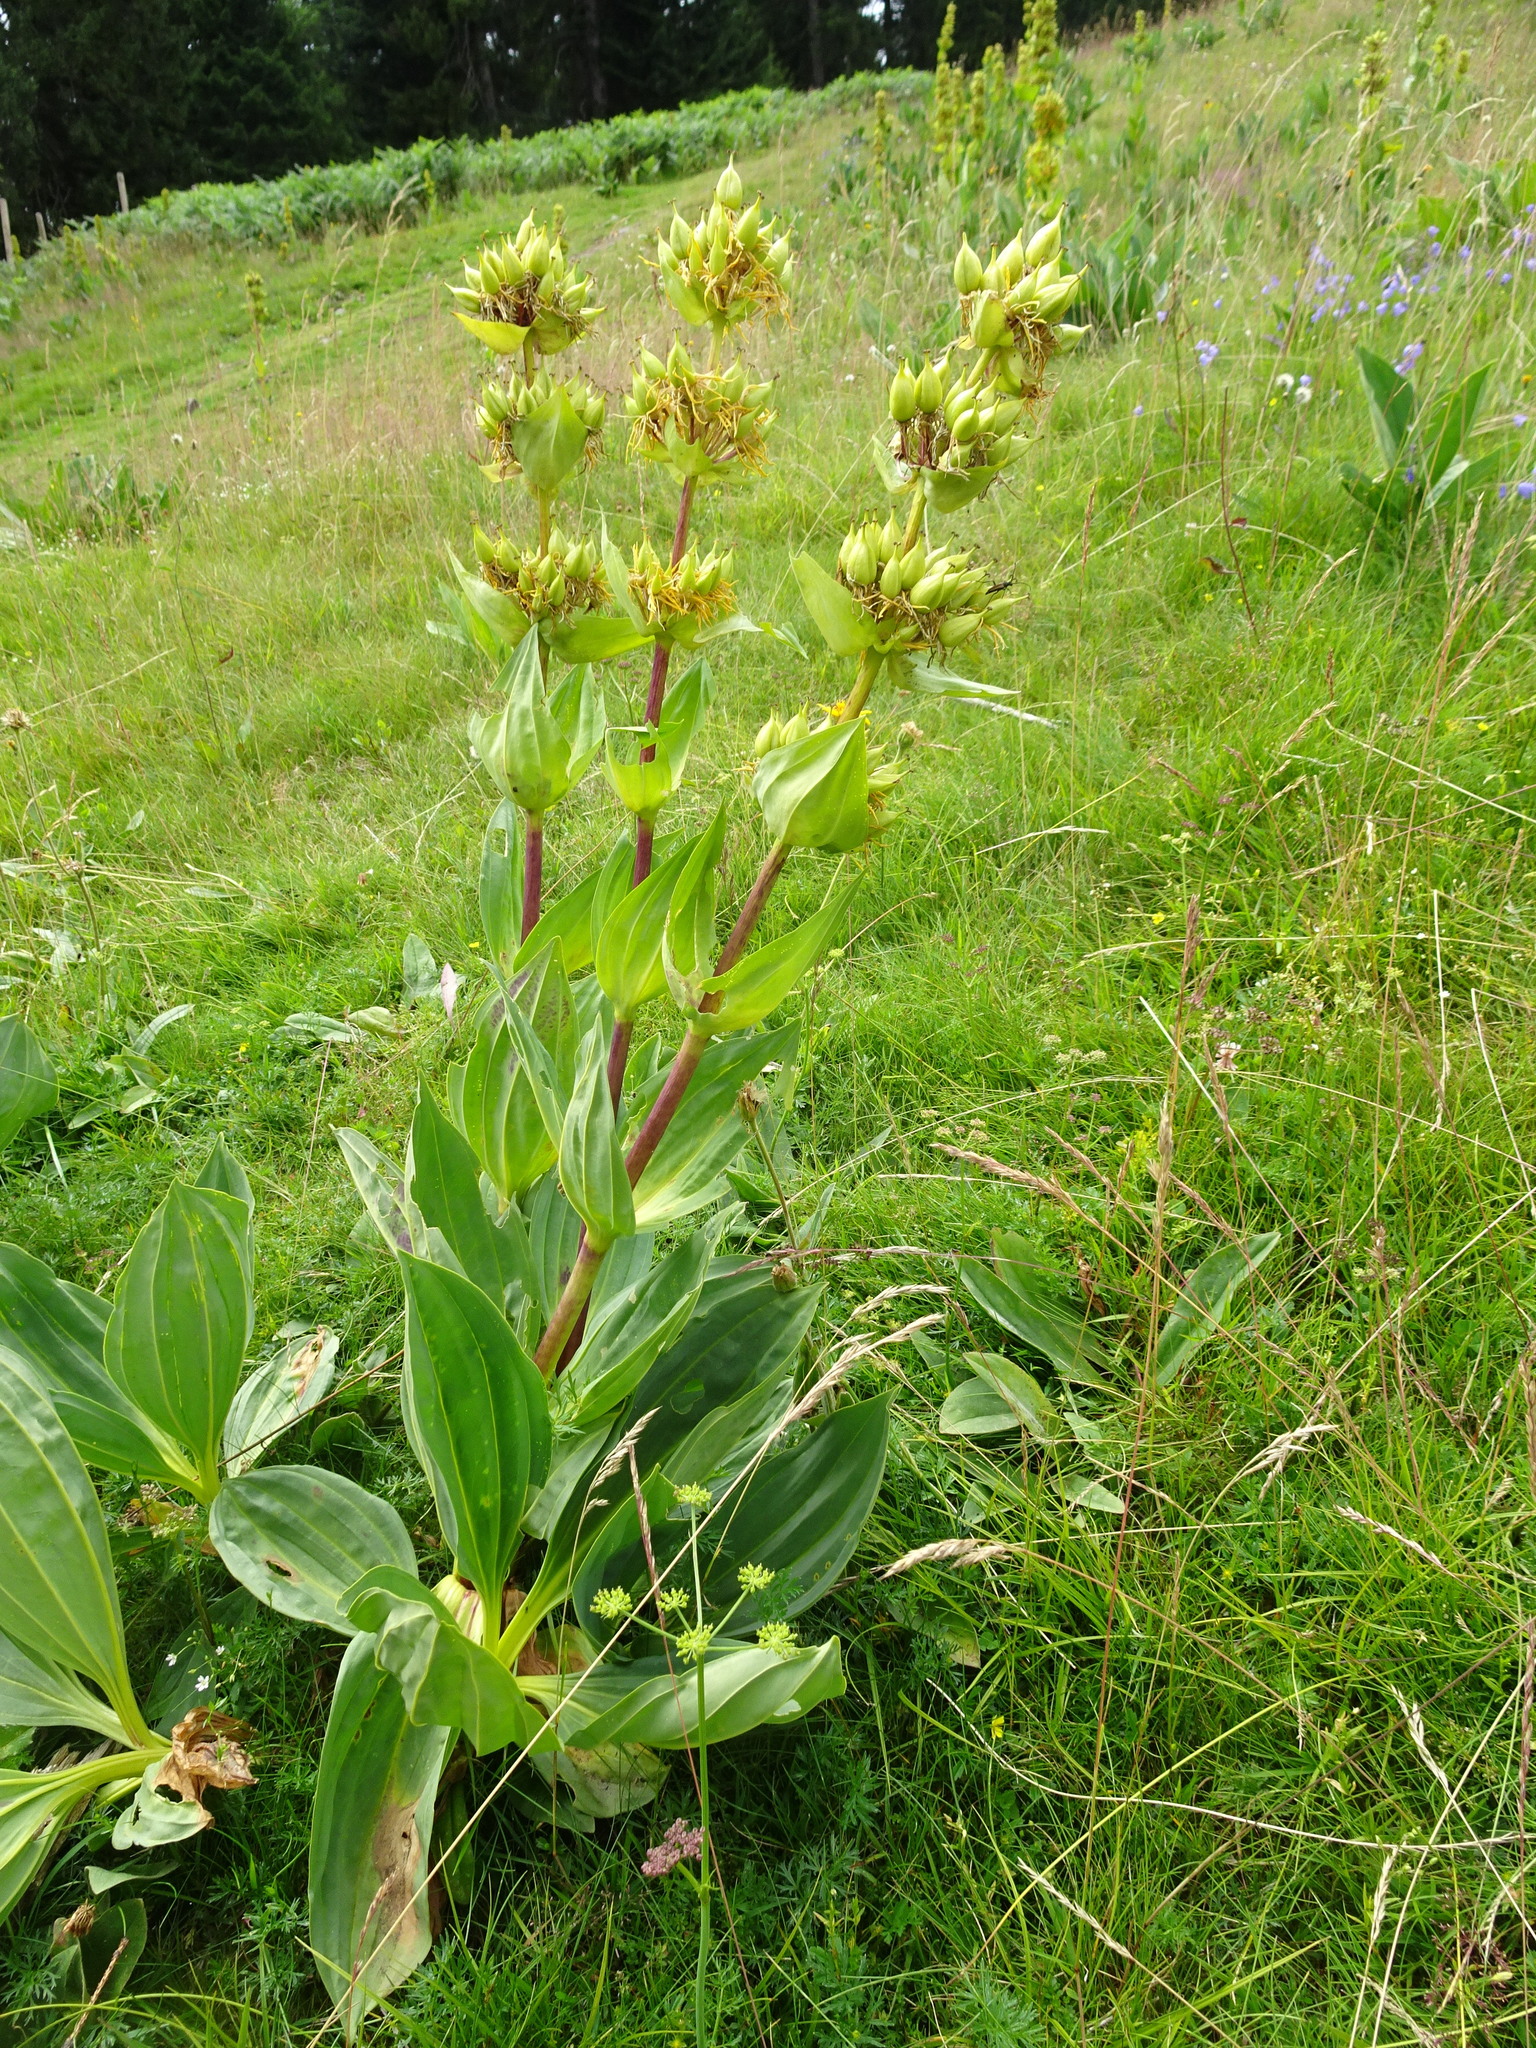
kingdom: Plantae
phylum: Tracheophyta
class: Magnoliopsida
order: Gentianales
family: Gentianaceae
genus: Gentiana
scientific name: Gentiana lutea
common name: Great yellow gentian
